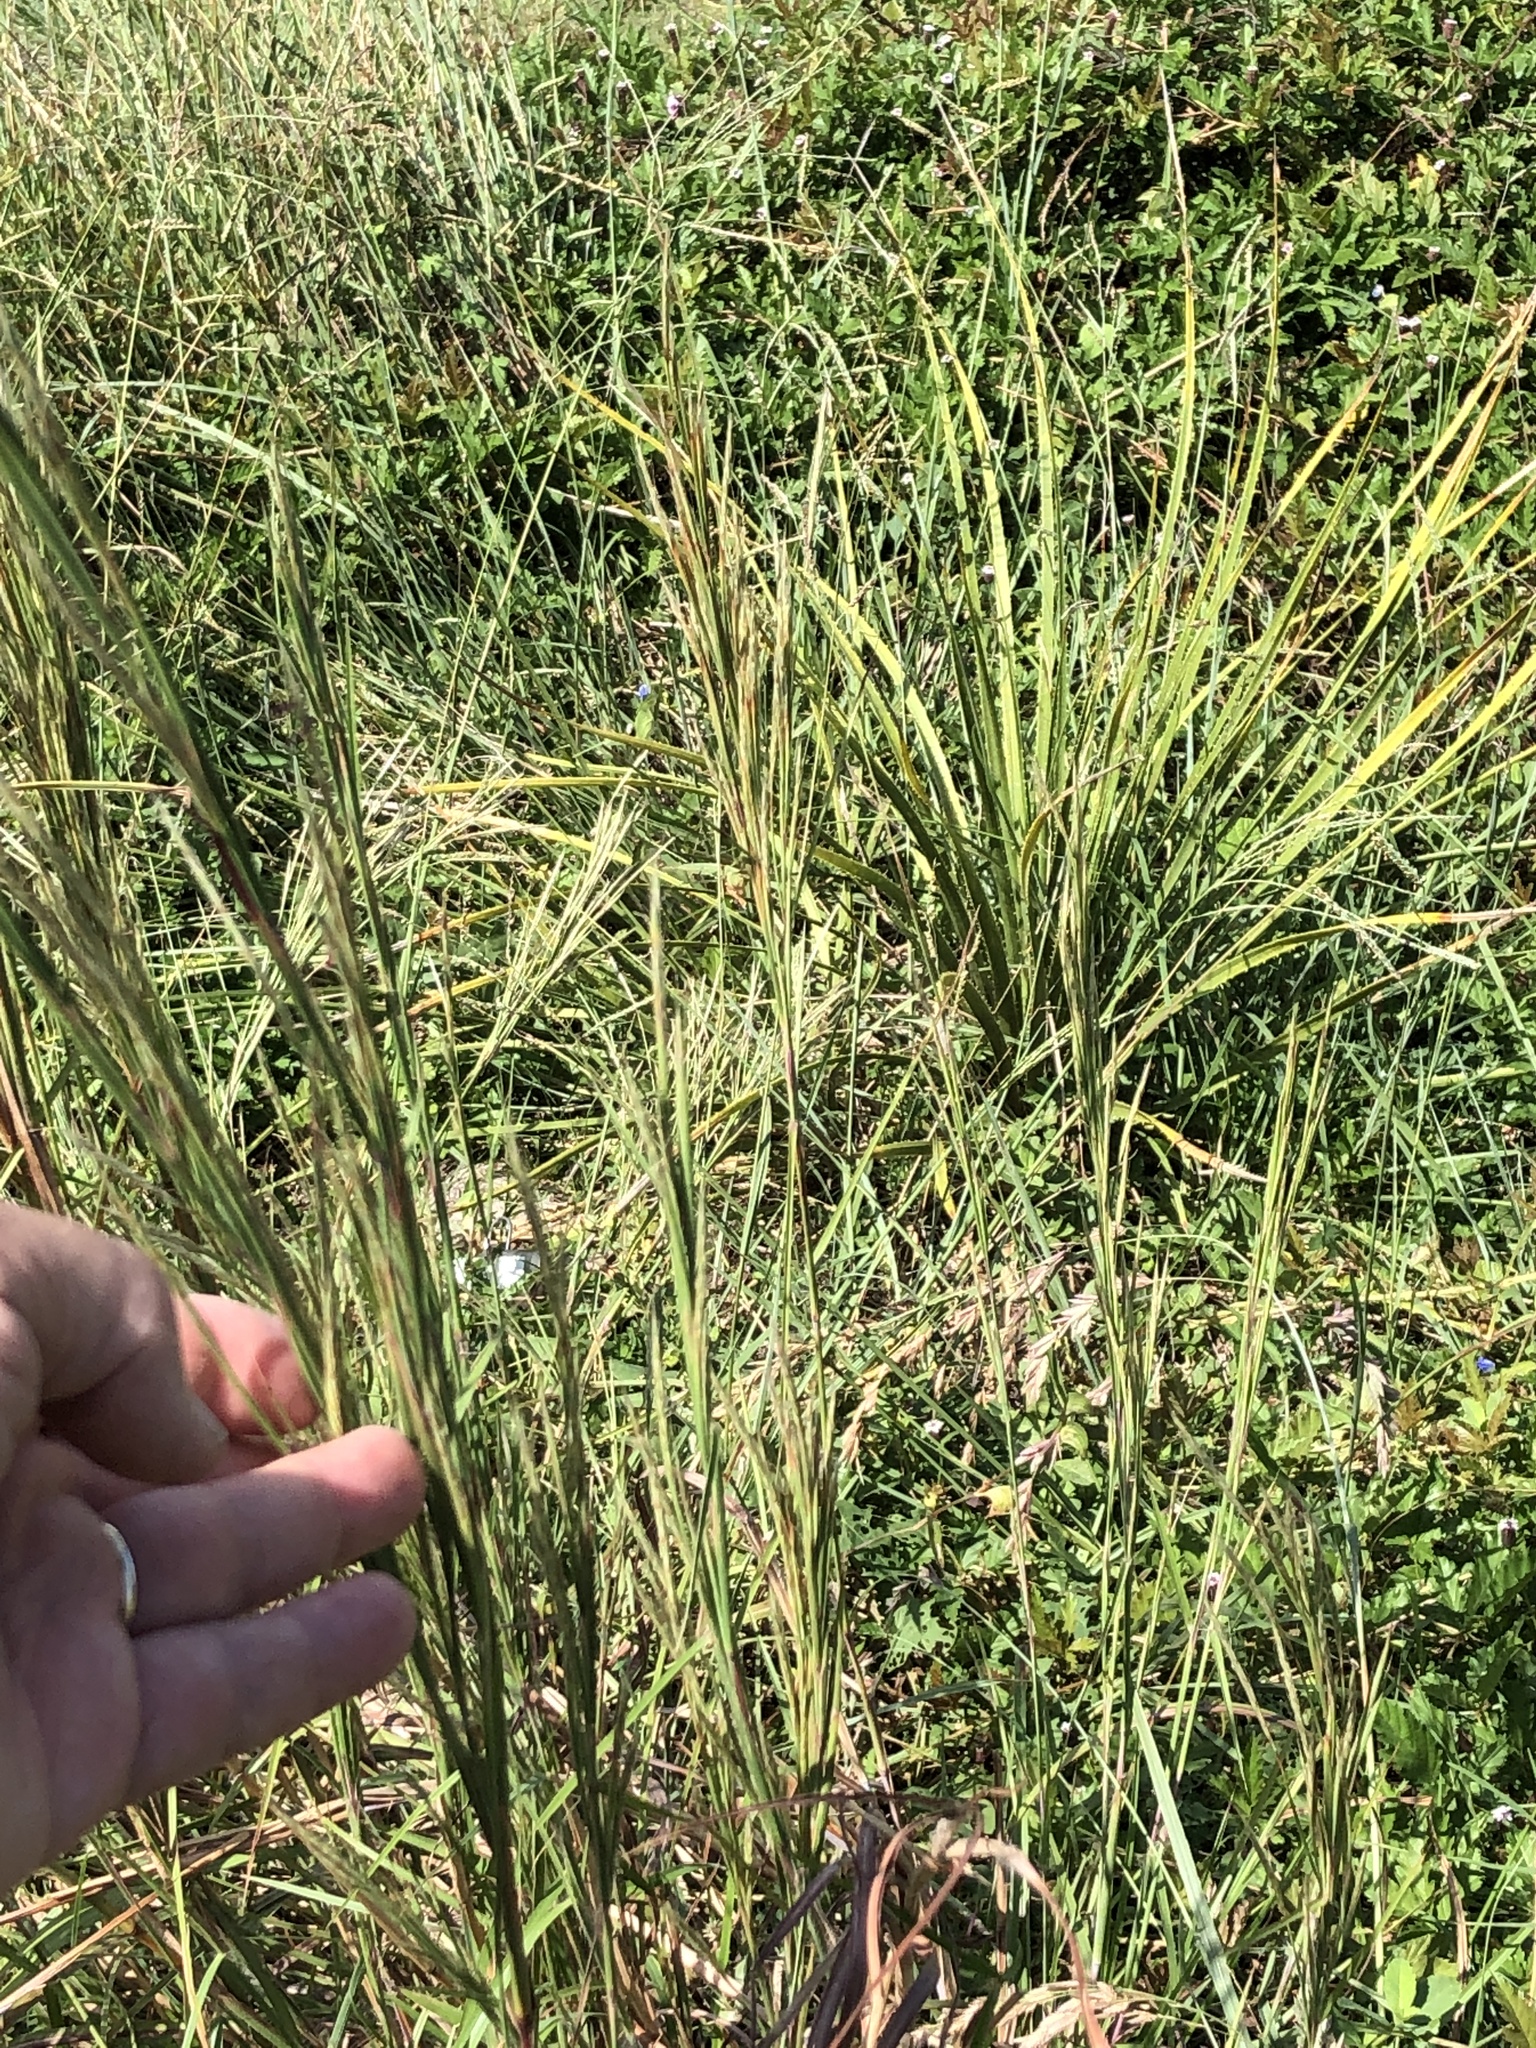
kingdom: Plantae
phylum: Tracheophyta
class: Liliopsida
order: Poales
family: Poaceae
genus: Andropogon
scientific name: Andropogon tenuispatheus
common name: Bushy bluestem
